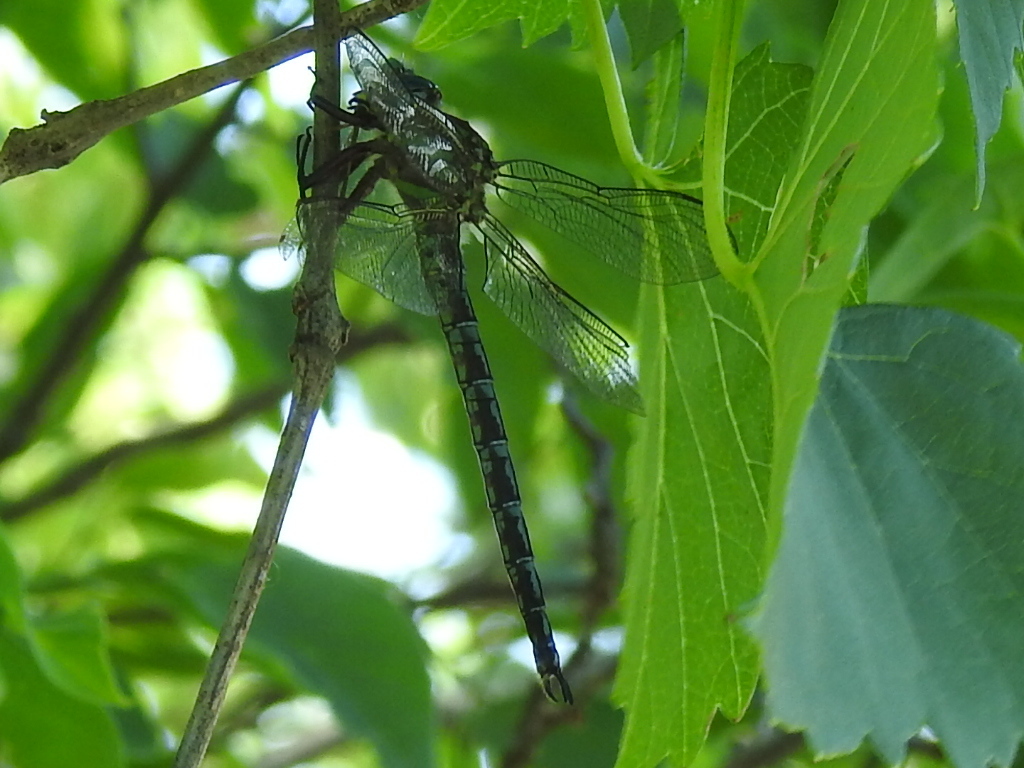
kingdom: Animalia
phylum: Arthropoda
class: Insecta
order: Odonata
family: Aeshnidae
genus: Nasiaeschna
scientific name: Nasiaeschna pentacantha
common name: Cyrano darner
